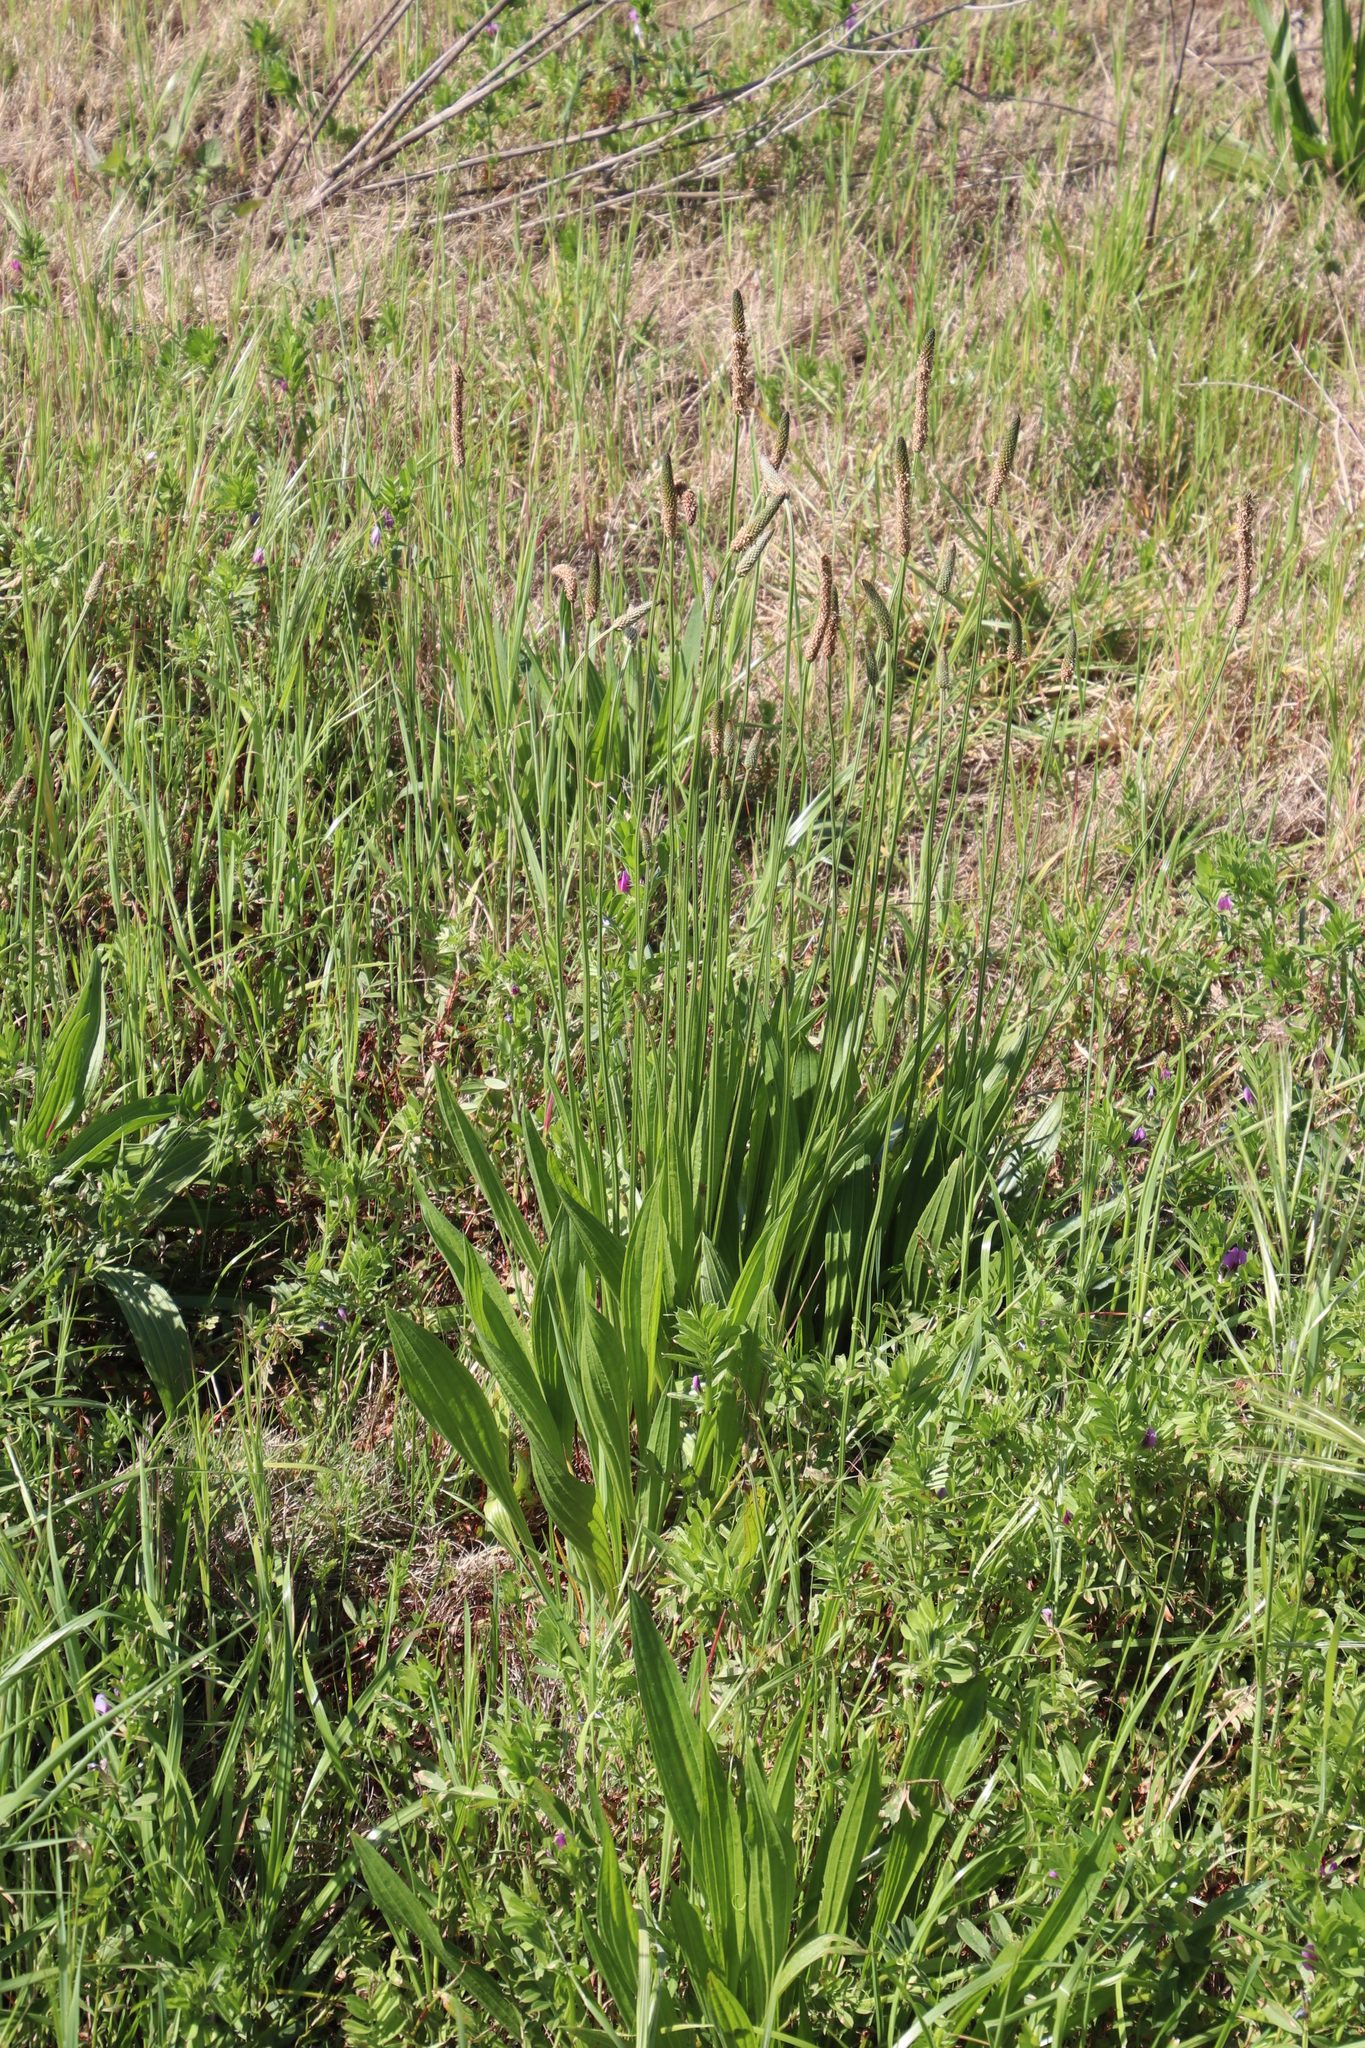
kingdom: Plantae
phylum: Tracheophyta
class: Magnoliopsida
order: Lamiales
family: Plantaginaceae
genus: Plantago
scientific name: Plantago lanceolata
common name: Ribwort plantain
